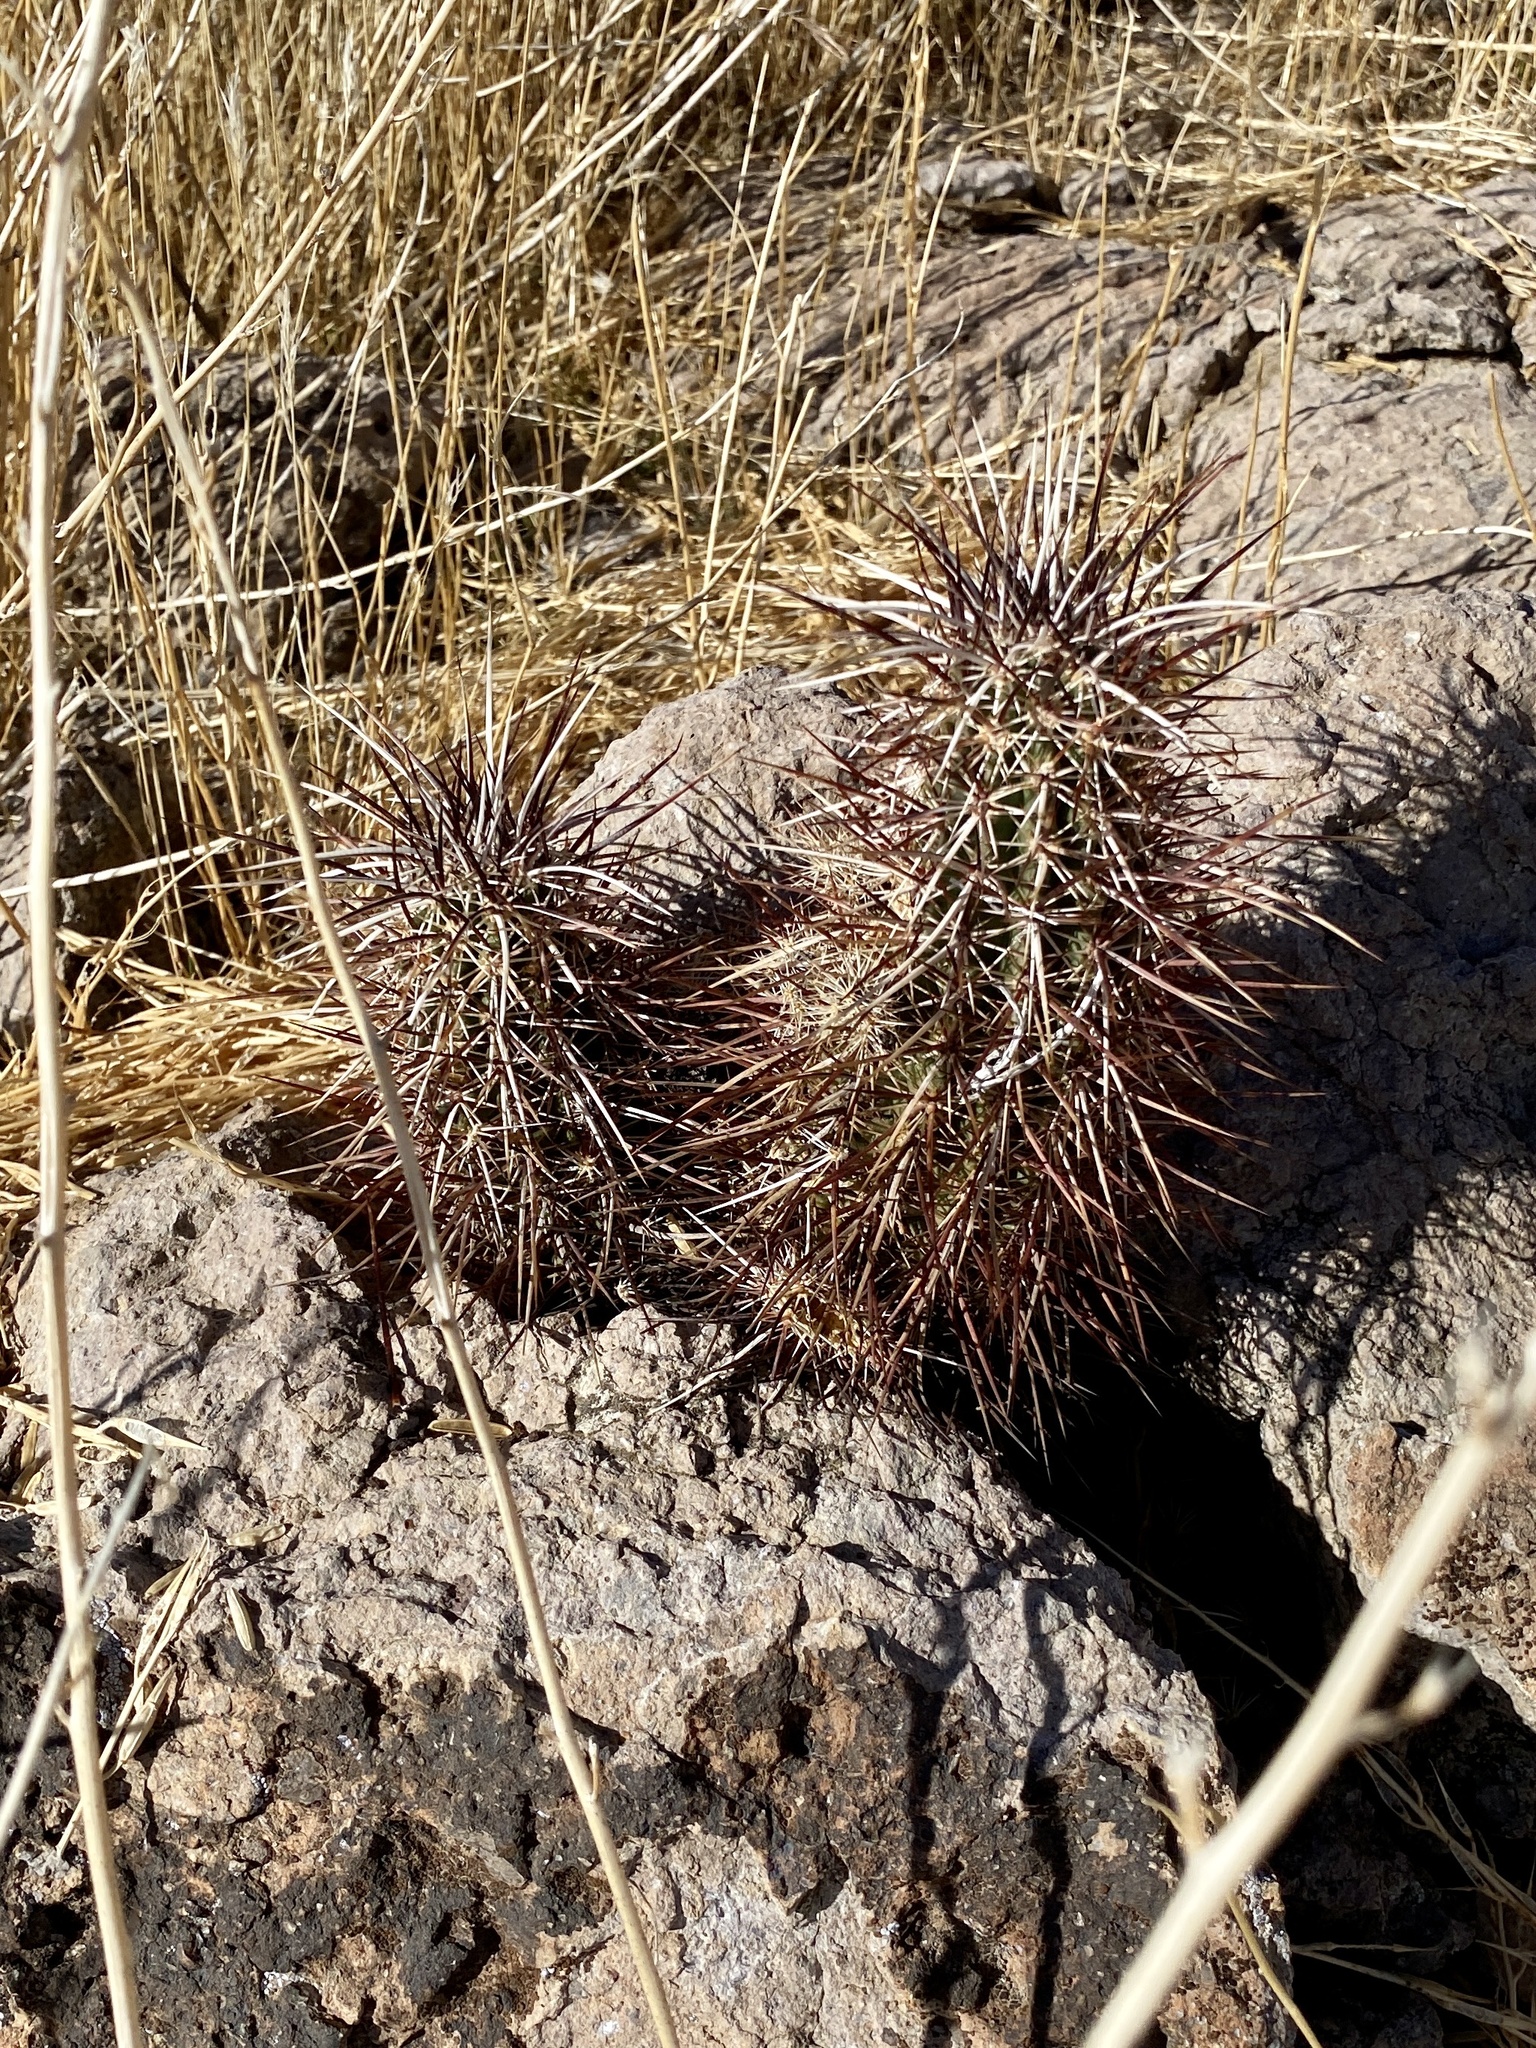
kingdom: Plantae
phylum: Tracheophyta
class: Magnoliopsida
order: Caryophyllales
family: Cactaceae
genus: Echinocereus
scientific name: Echinocereus engelmannii
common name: Engelmann's hedgehog cactus
